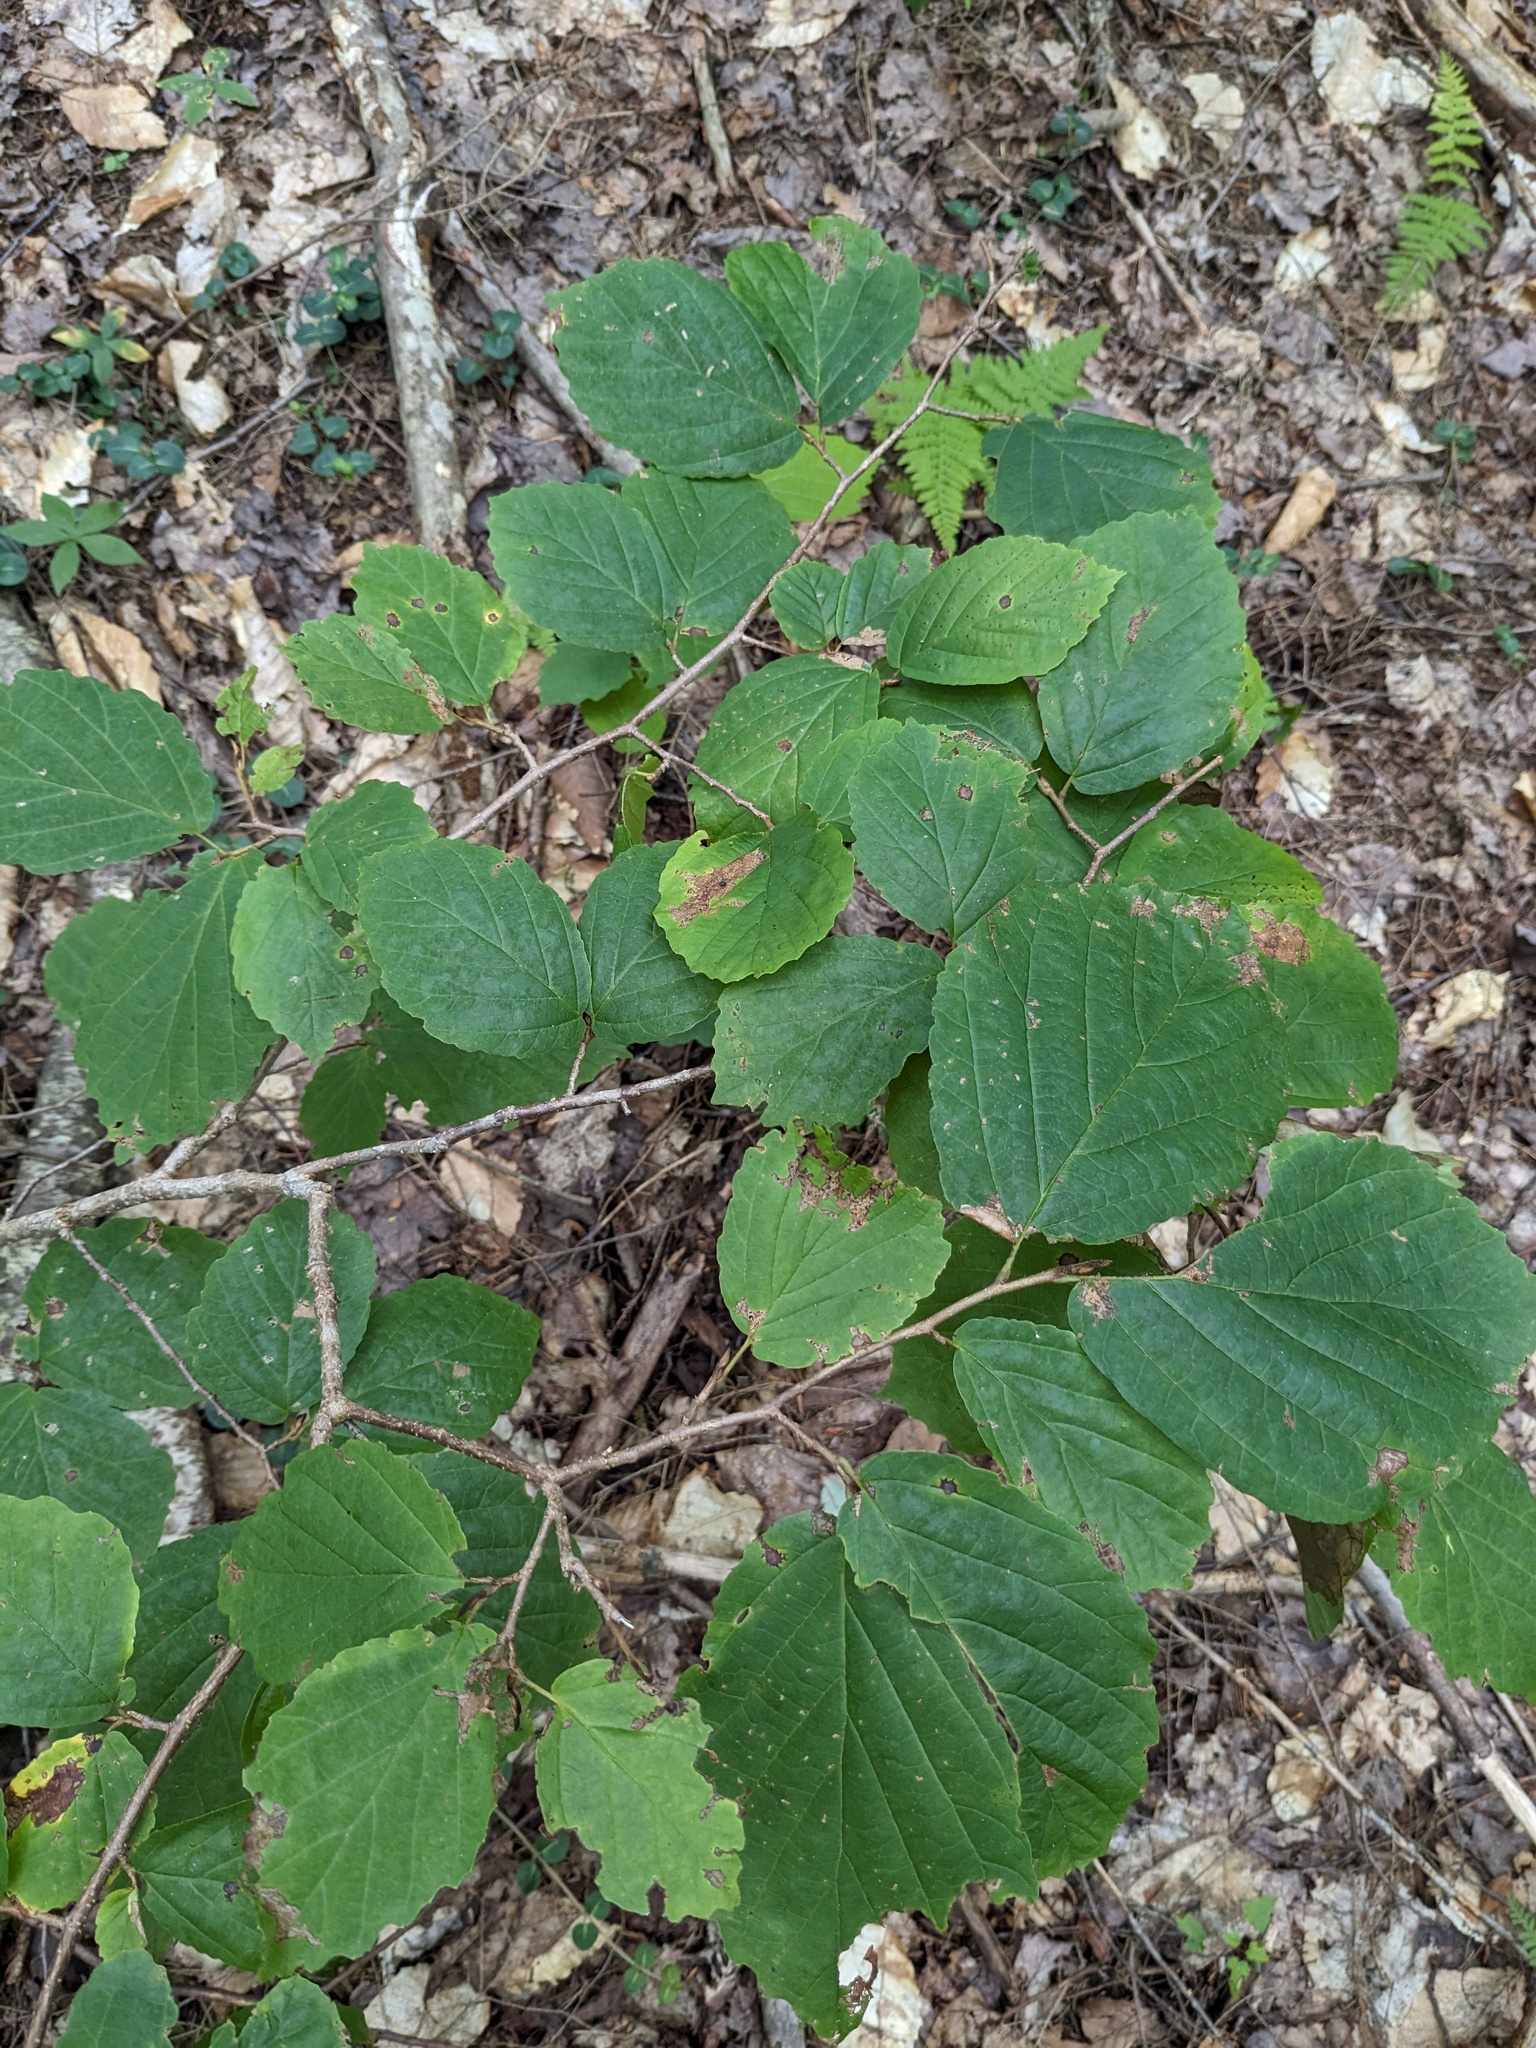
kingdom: Plantae
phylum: Tracheophyta
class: Magnoliopsida
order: Saxifragales
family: Hamamelidaceae
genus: Hamamelis
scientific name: Hamamelis virginiana
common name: Witch-hazel
